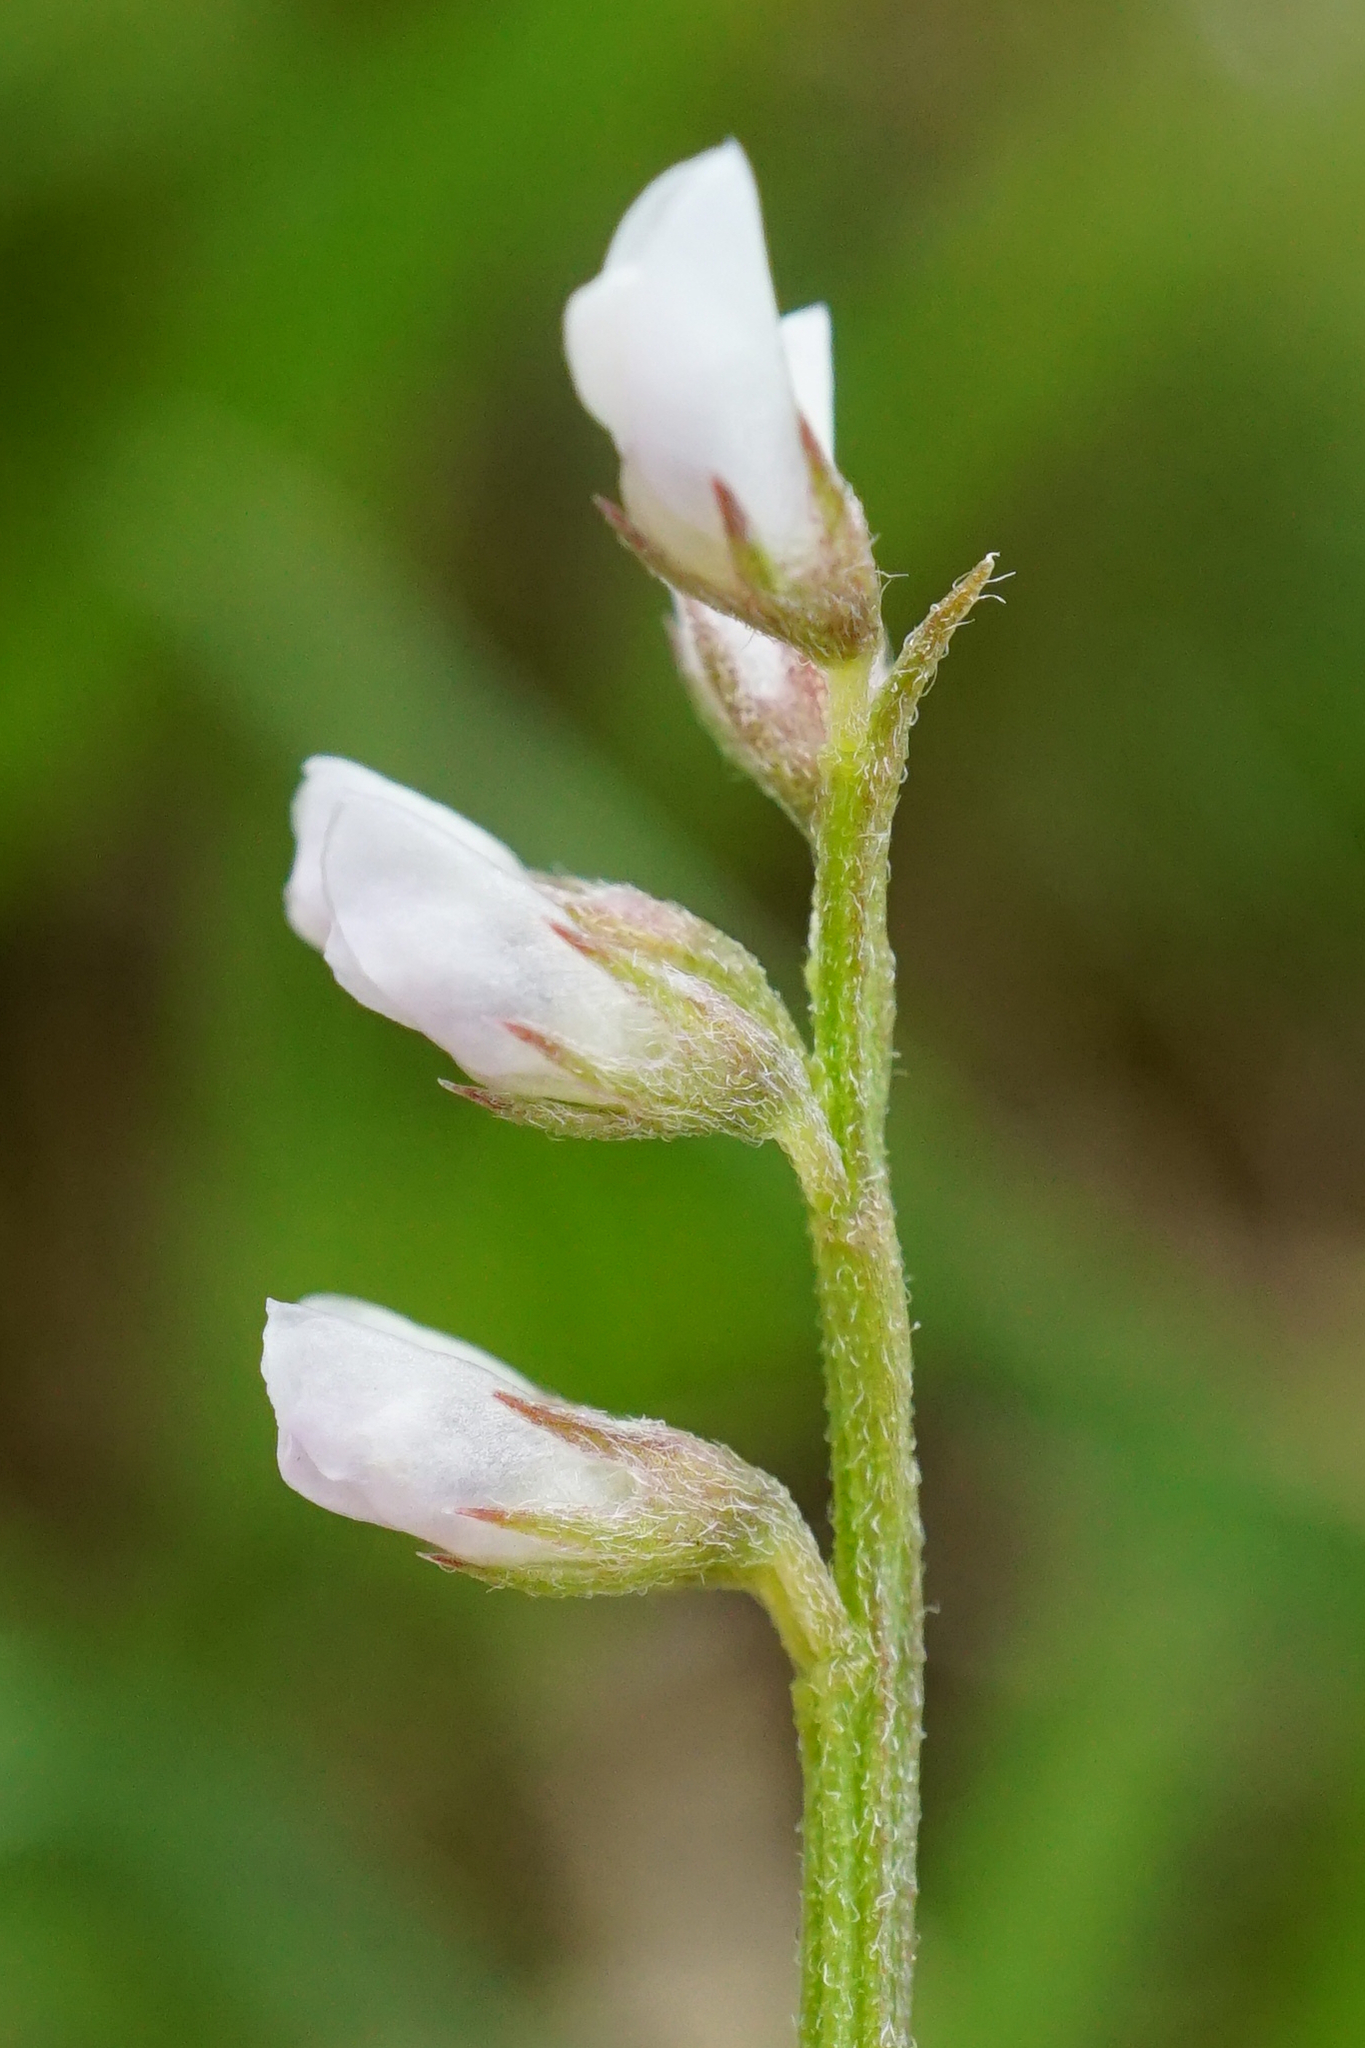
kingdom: Plantae
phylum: Tracheophyta
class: Magnoliopsida
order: Fabales
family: Fabaceae
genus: Vicia
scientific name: Vicia hirsuta
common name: Tiny vetch
